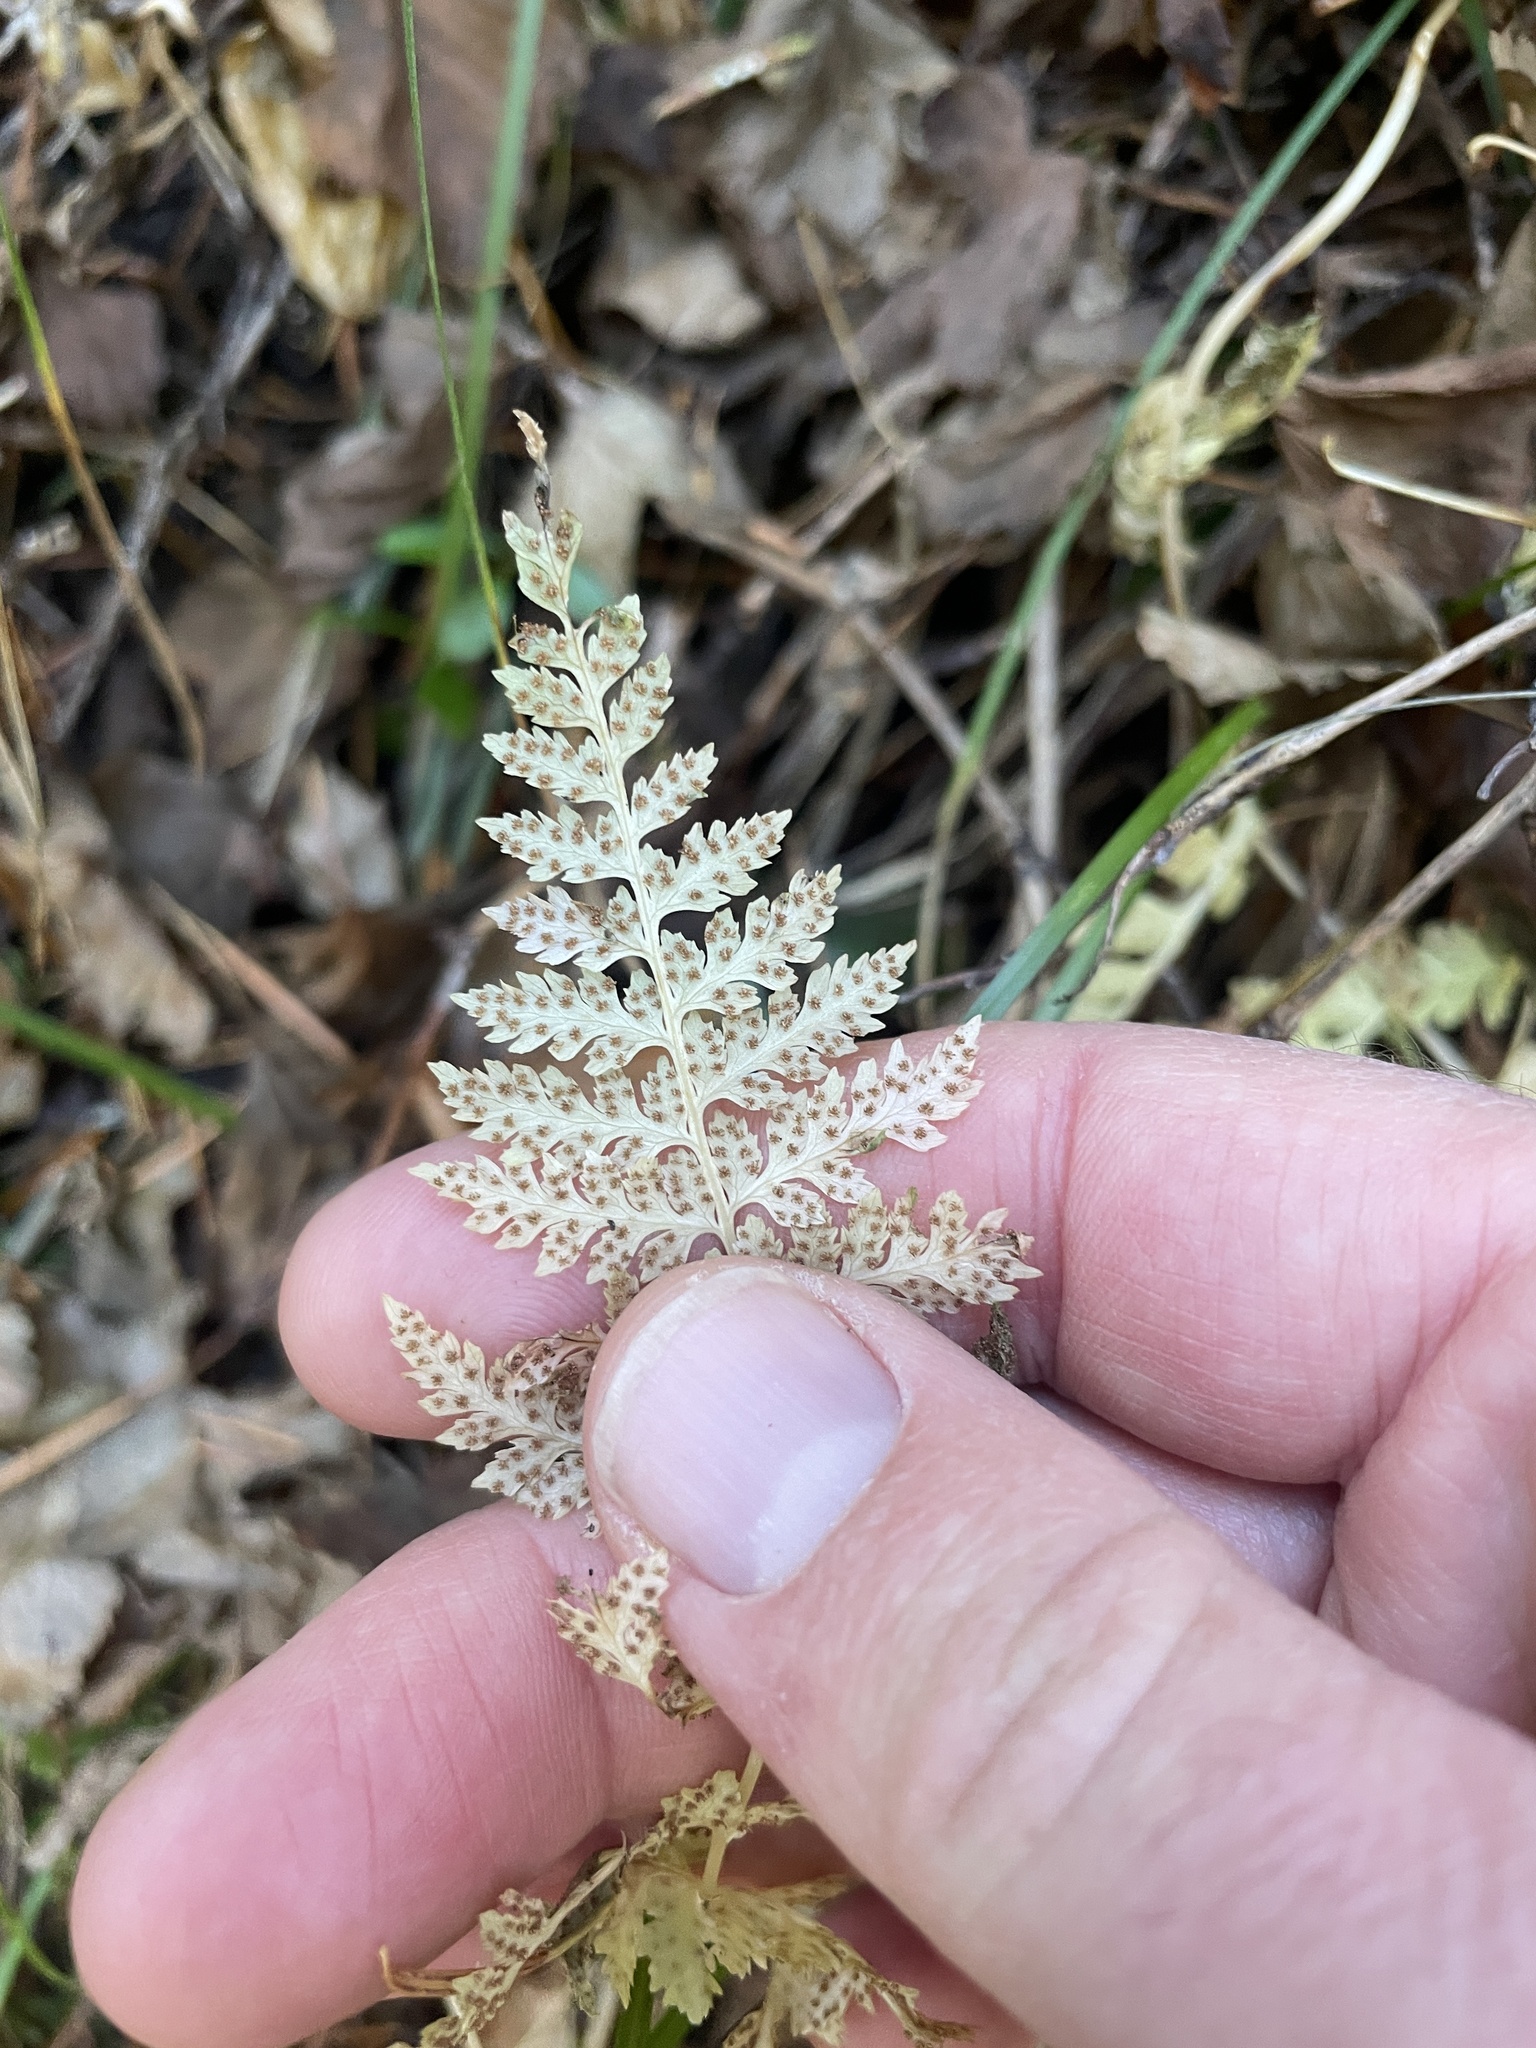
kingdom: Plantae
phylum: Tracheophyta
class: Polypodiopsida
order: Polypodiales
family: Cystopteridaceae
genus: Cystopteris
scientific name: Cystopteris fragilis
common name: Brittle bladder fern
